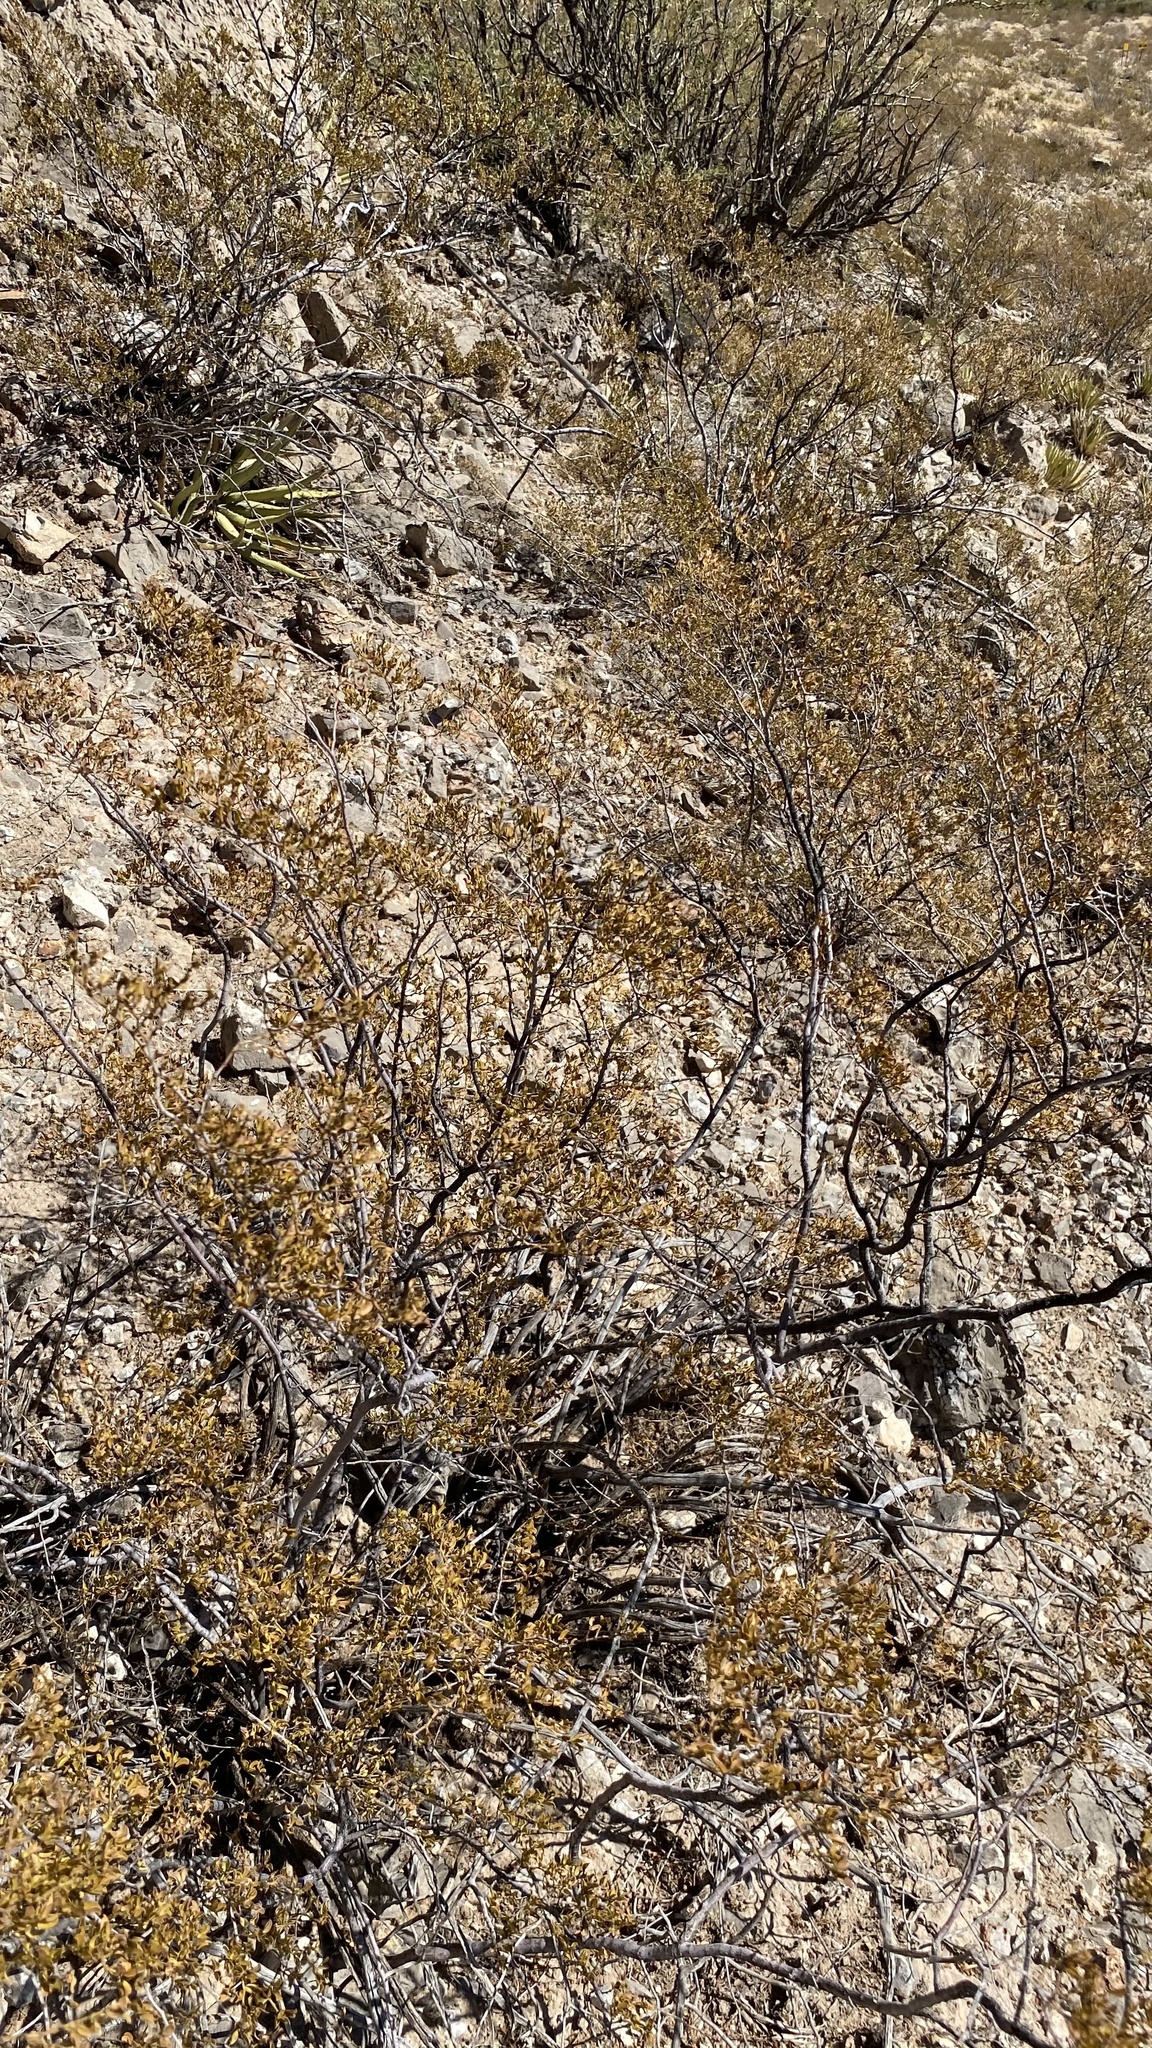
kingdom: Plantae
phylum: Tracheophyta
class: Magnoliopsida
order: Zygophyllales
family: Zygophyllaceae
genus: Larrea
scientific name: Larrea tridentata
